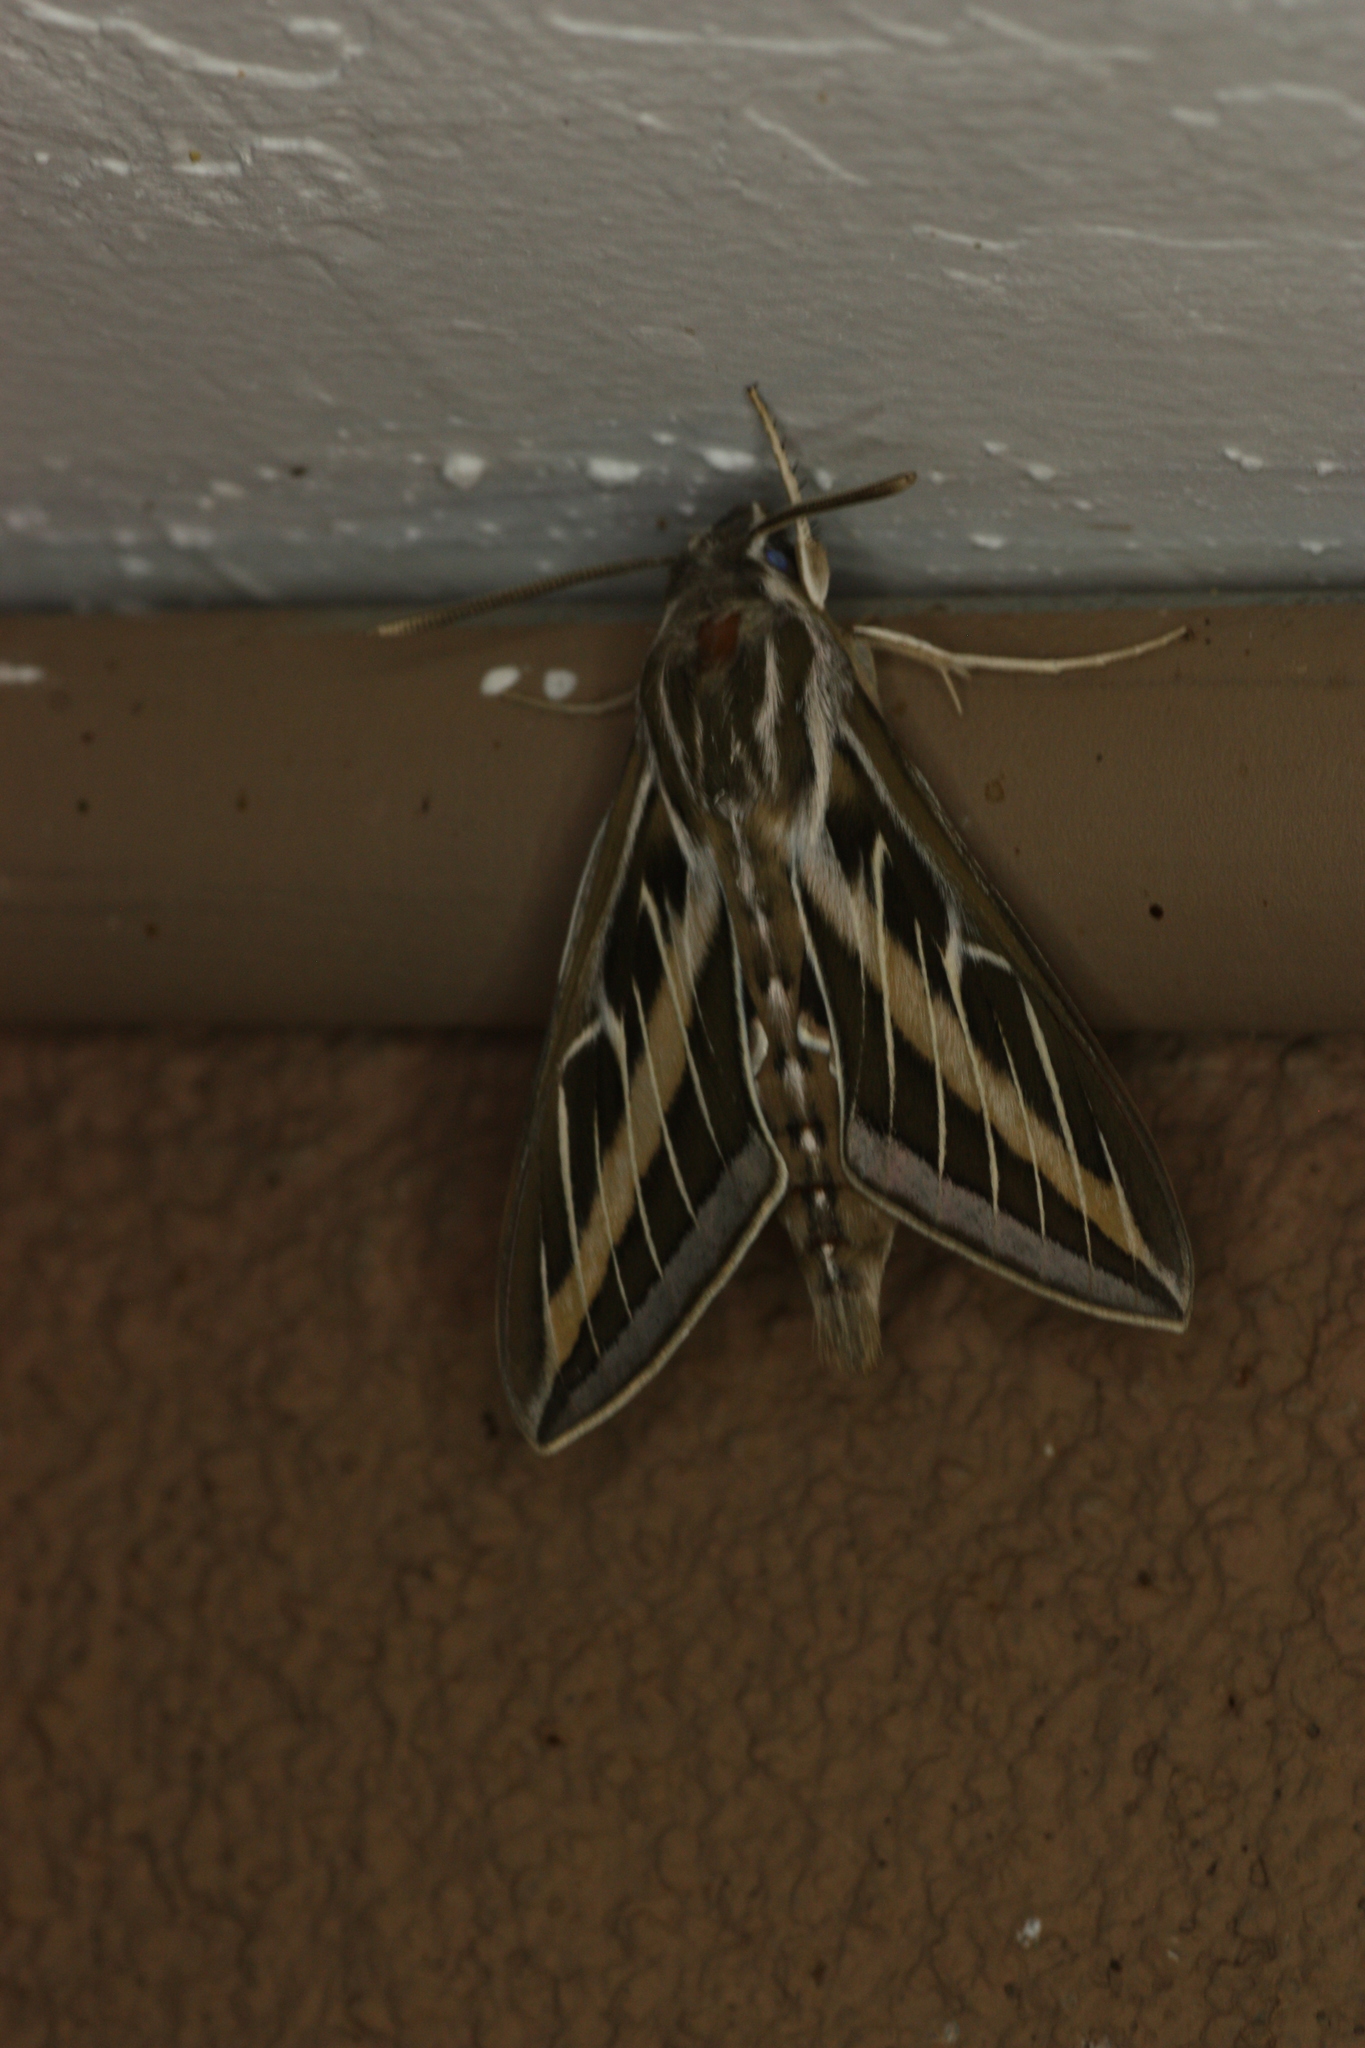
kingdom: Animalia
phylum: Arthropoda
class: Insecta
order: Lepidoptera
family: Sphingidae
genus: Hyles
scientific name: Hyles lineata
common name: White-lined sphinx
